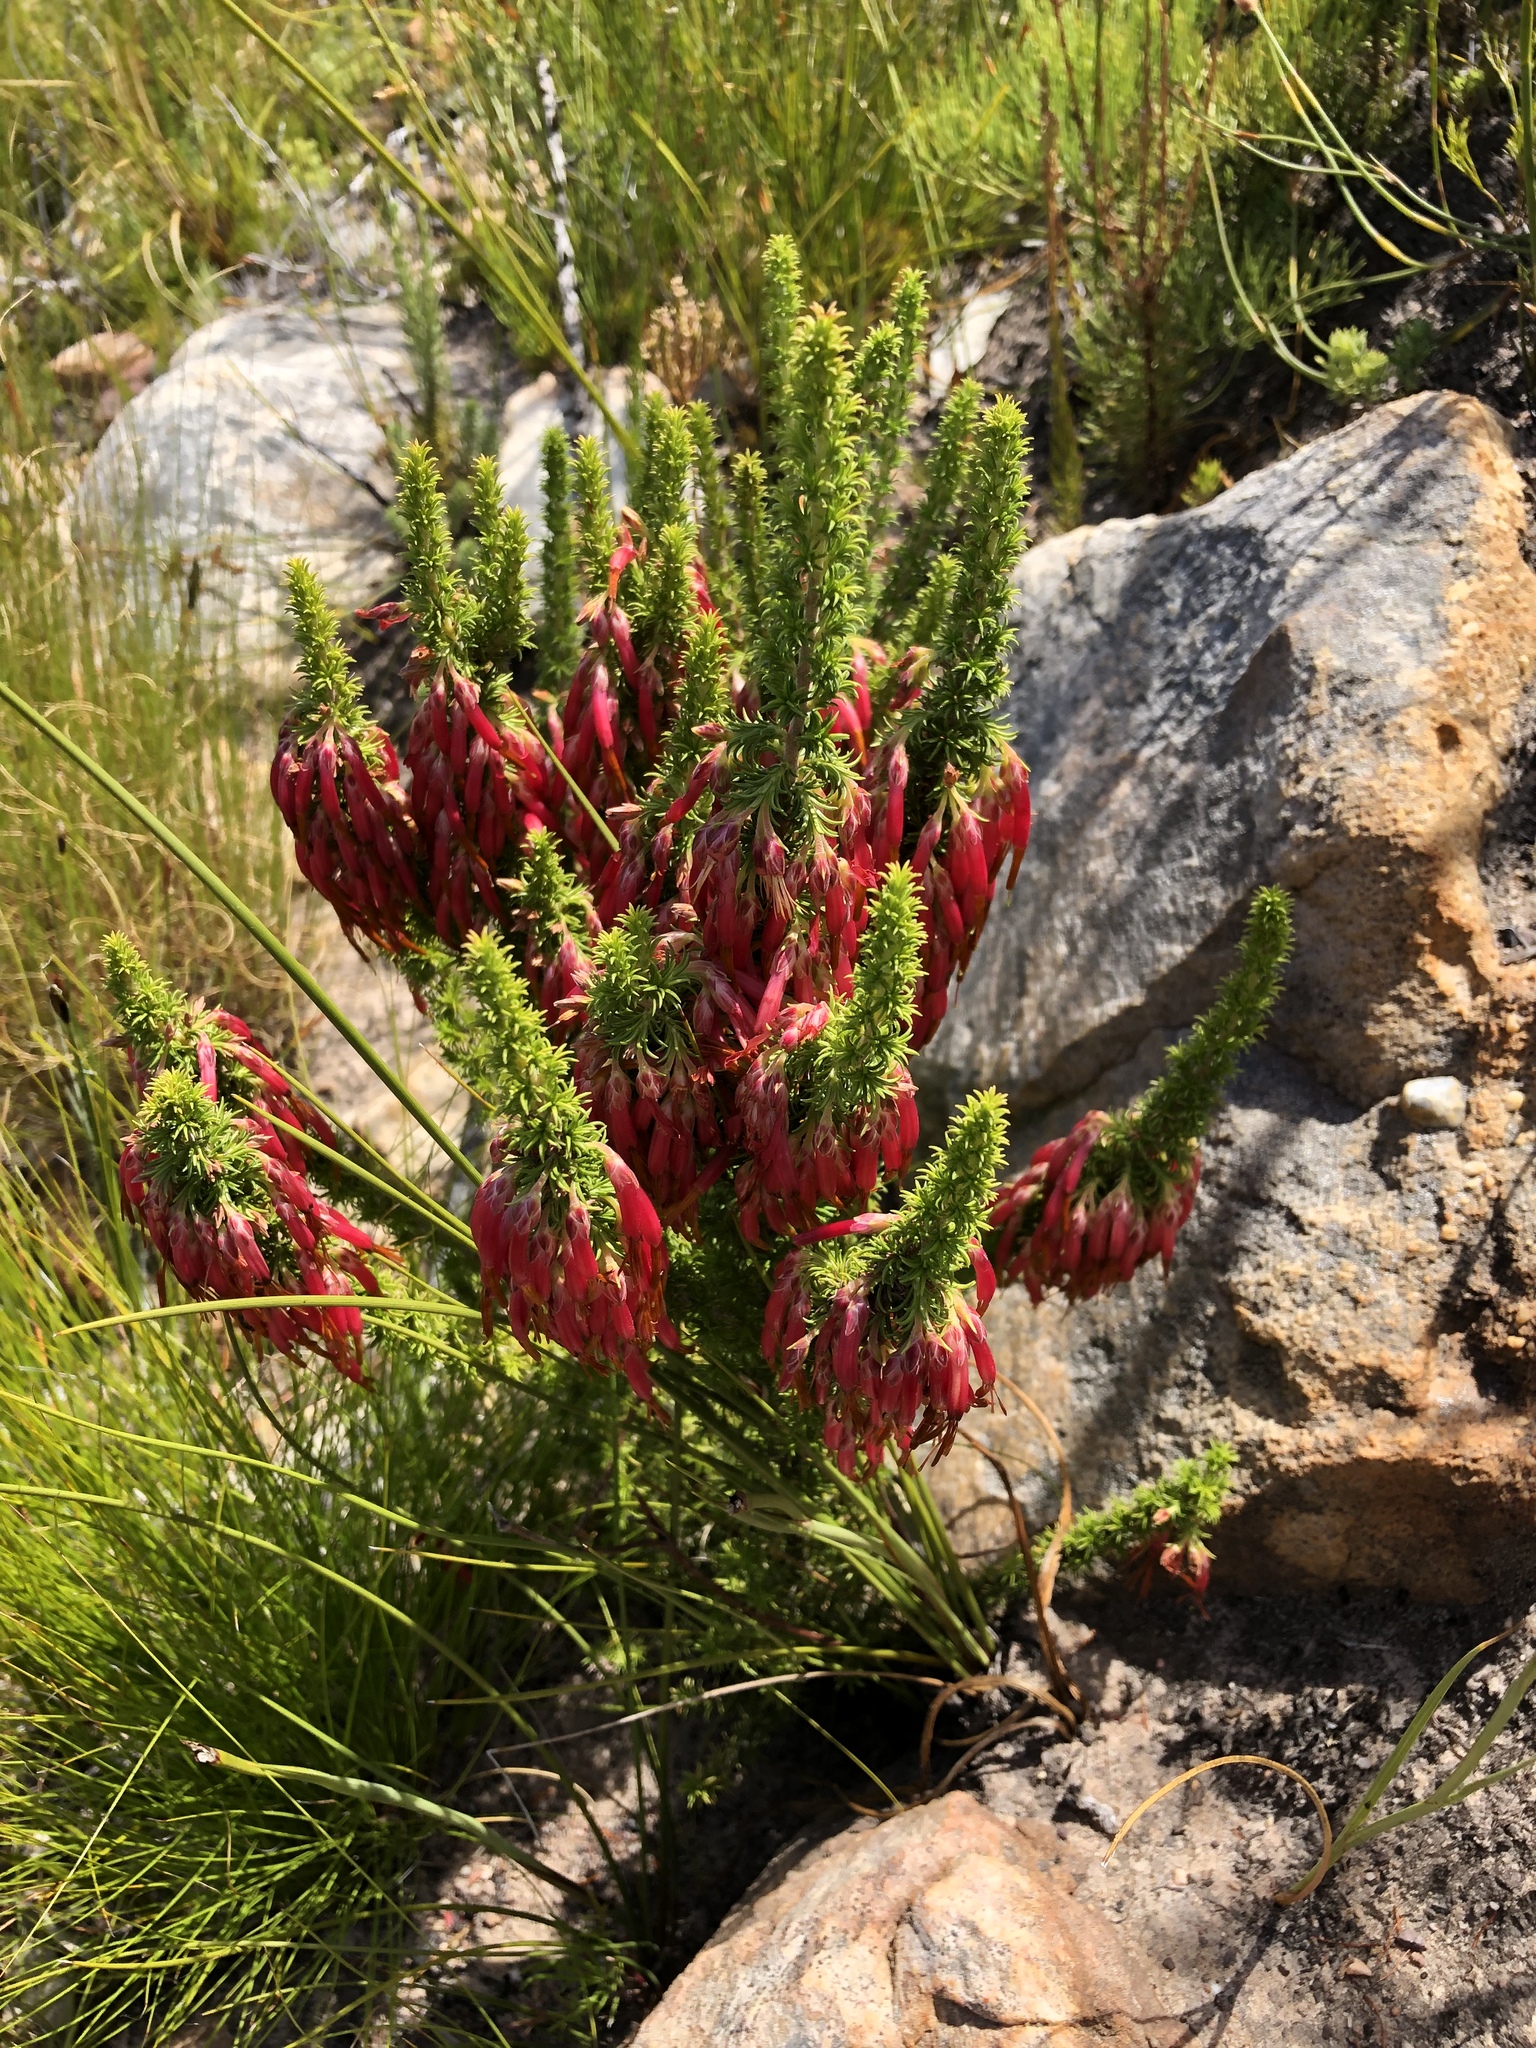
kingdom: Plantae
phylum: Tracheophyta
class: Magnoliopsida
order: Ericales
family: Ericaceae
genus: Erica
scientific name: Erica coccinea
